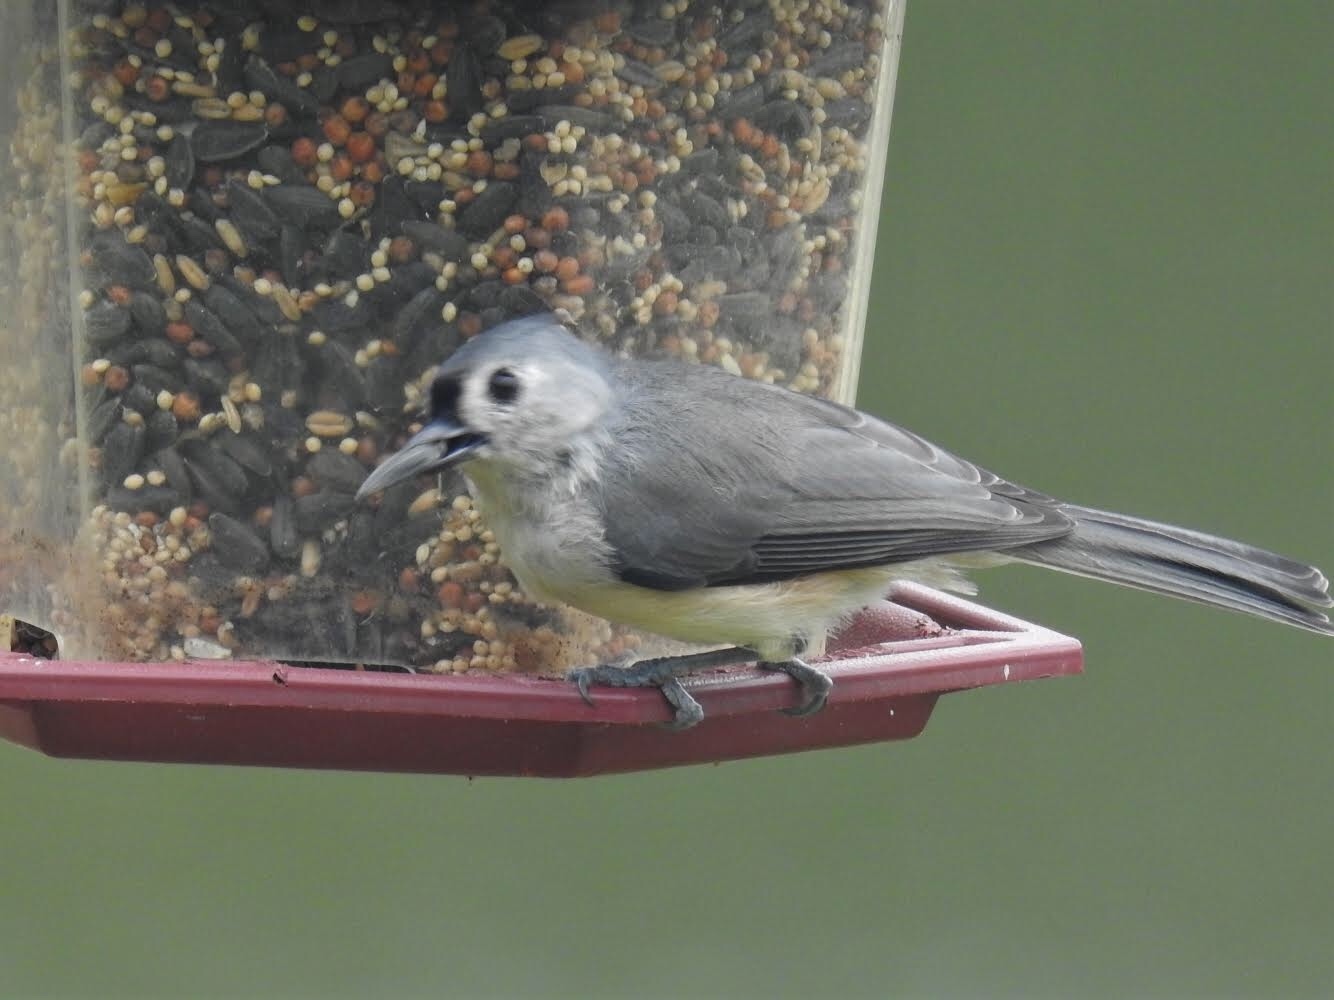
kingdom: Animalia
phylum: Chordata
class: Aves
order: Passeriformes
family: Paridae
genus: Baeolophus
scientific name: Baeolophus bicolor
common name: Tufted titmouse
